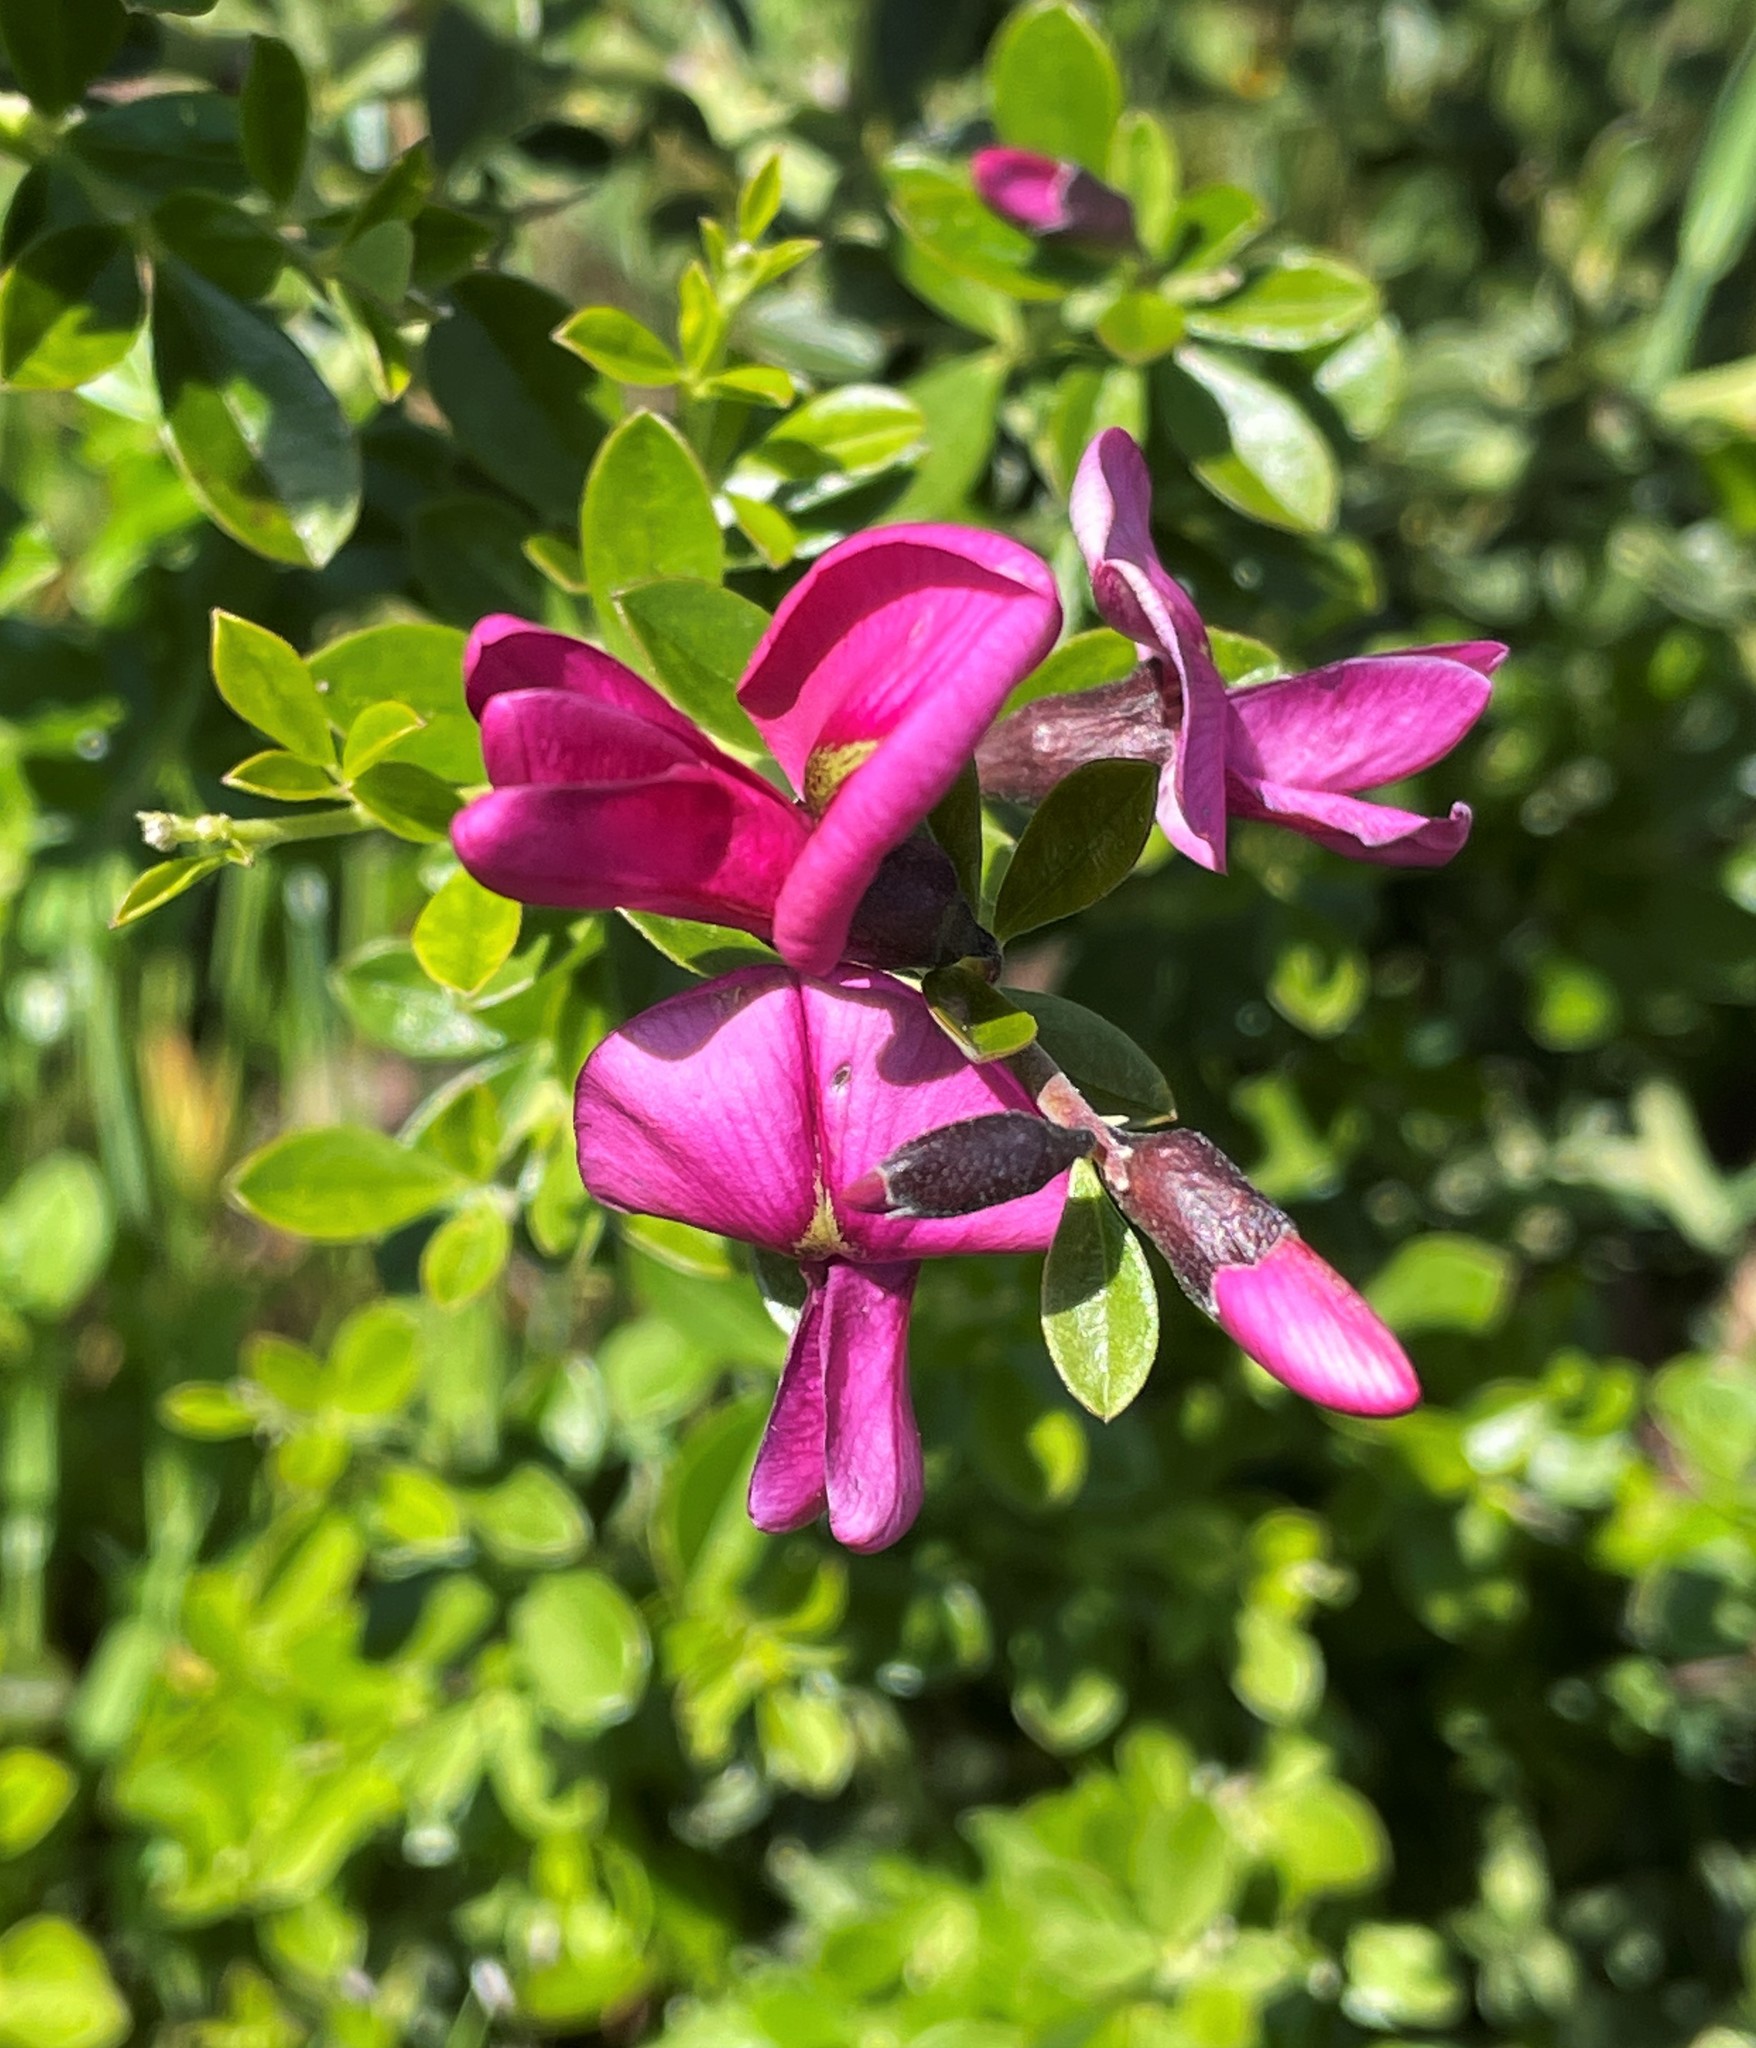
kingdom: Plantae
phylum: Tracheophyta
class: Magnoliopsida
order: Fabales
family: Fabaceae
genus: Pickeringia
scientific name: Pickeringia montana
